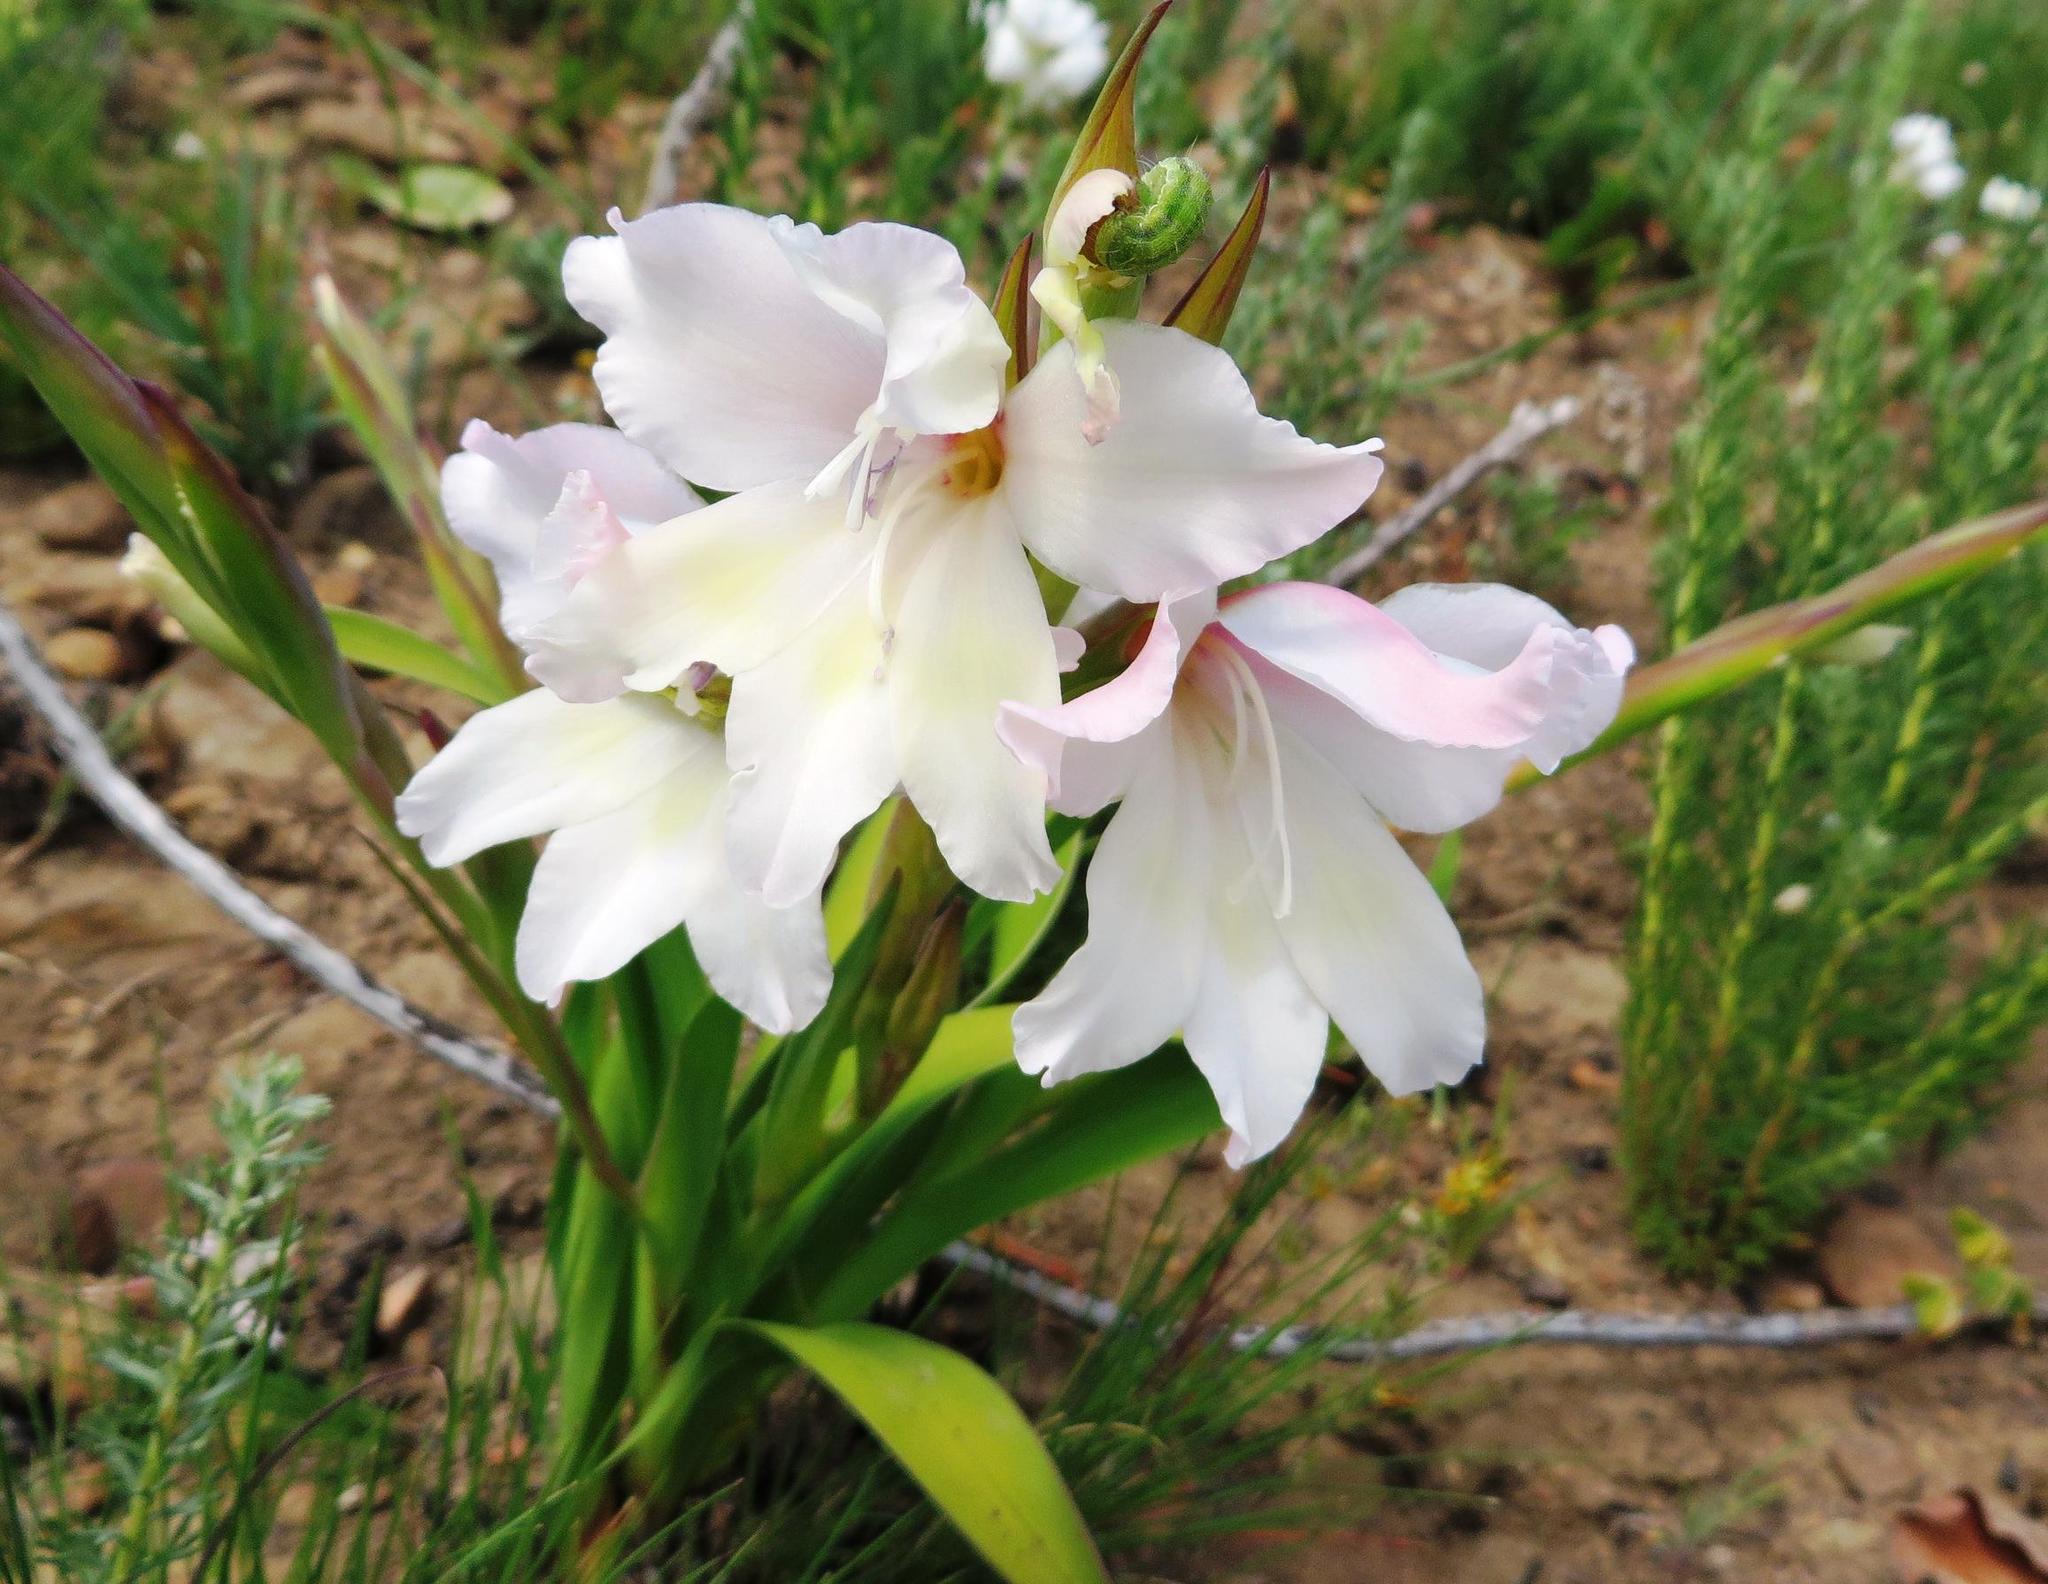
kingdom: Plantae
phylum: Tracheophyta
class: Liliopsida
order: Asparagales
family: Iridaceae
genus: Gladiolus
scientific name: Gladiolus carneus
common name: Painted-lady
